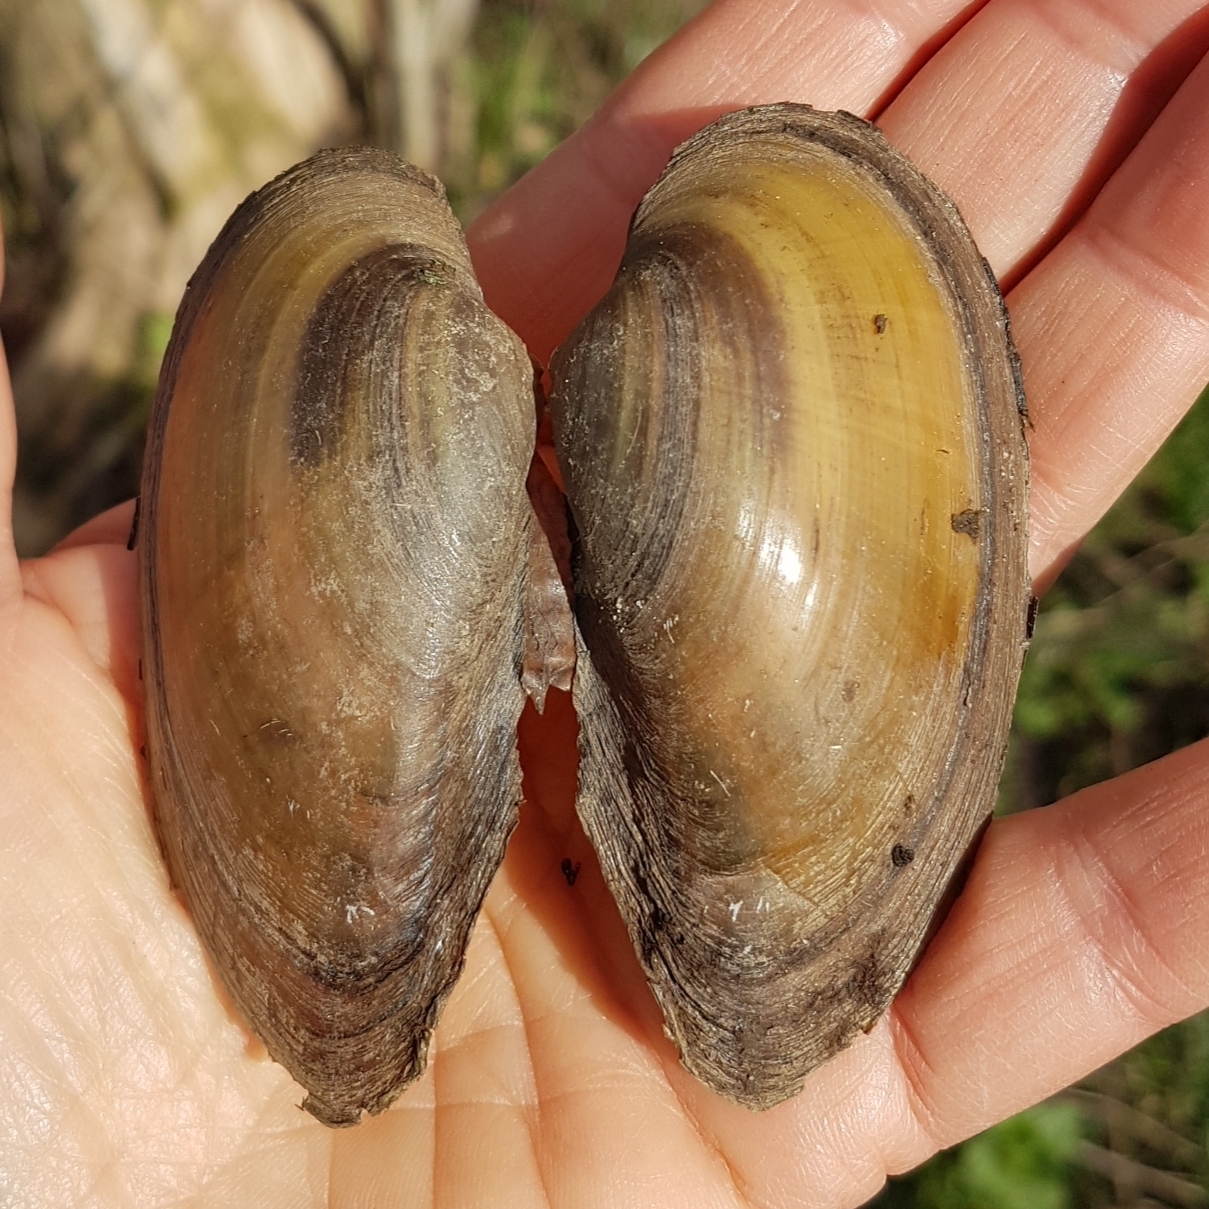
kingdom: Animalia
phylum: Mollusca
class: Bivalvia
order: Unionida
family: Unionidae
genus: Unio
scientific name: Unio tumidus
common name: Swollen river mussel
